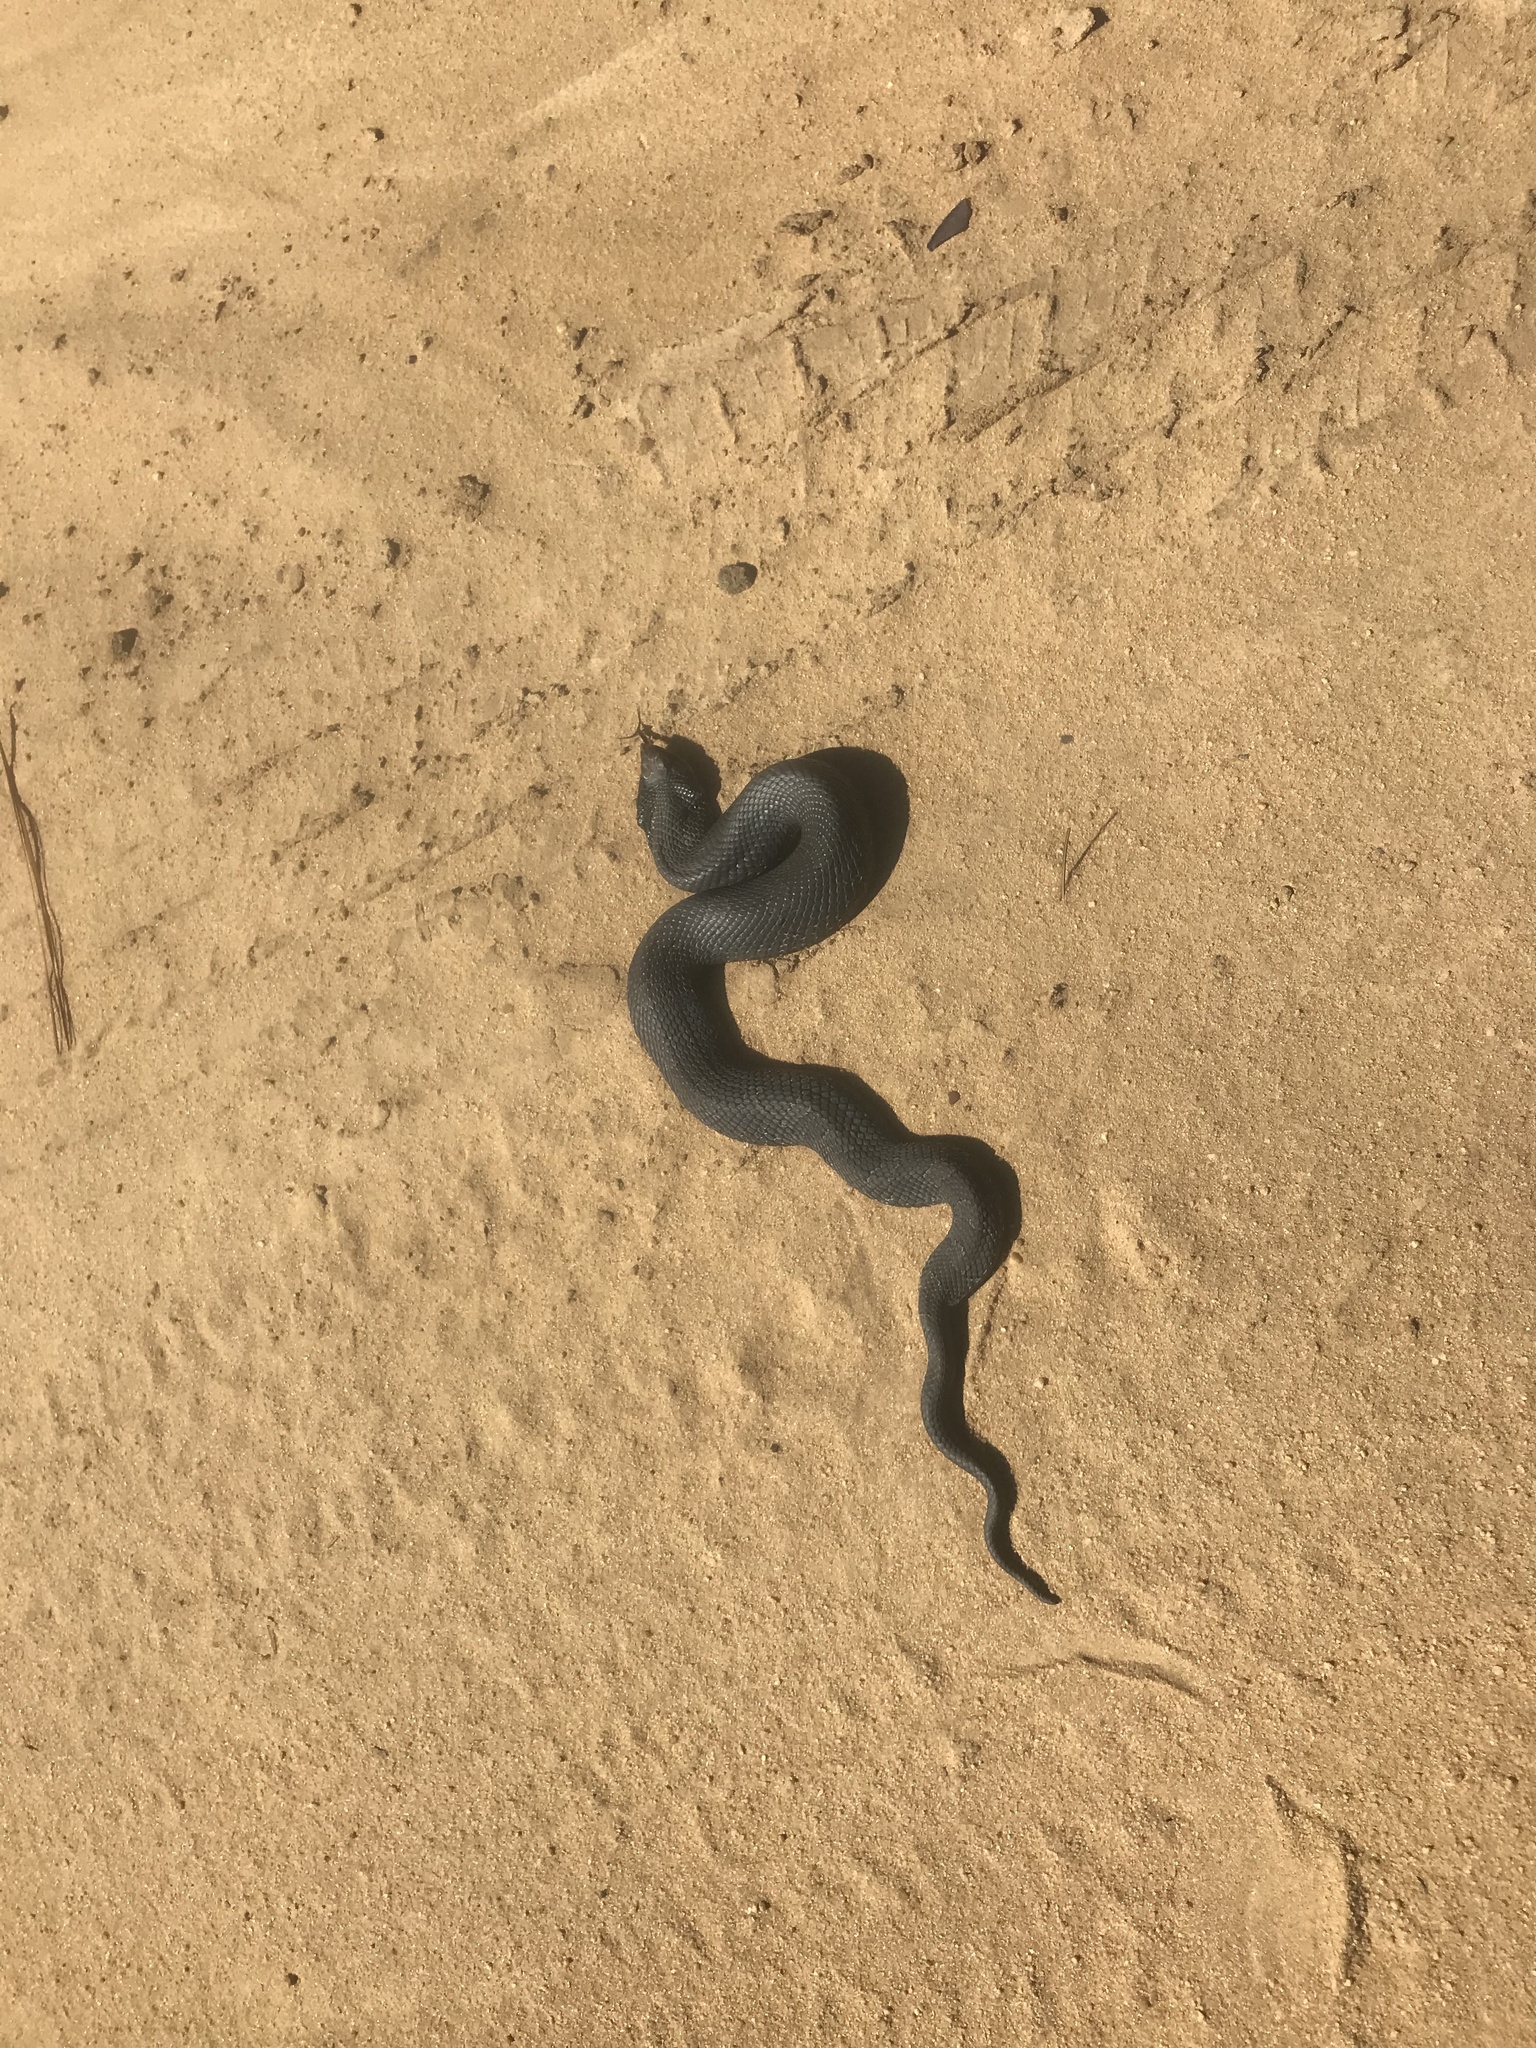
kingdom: Animalia
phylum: Chordata
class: Squamata
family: Colubridae
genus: Heterodon
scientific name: Heterodon platirhinos
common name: Eastern hognose snake
